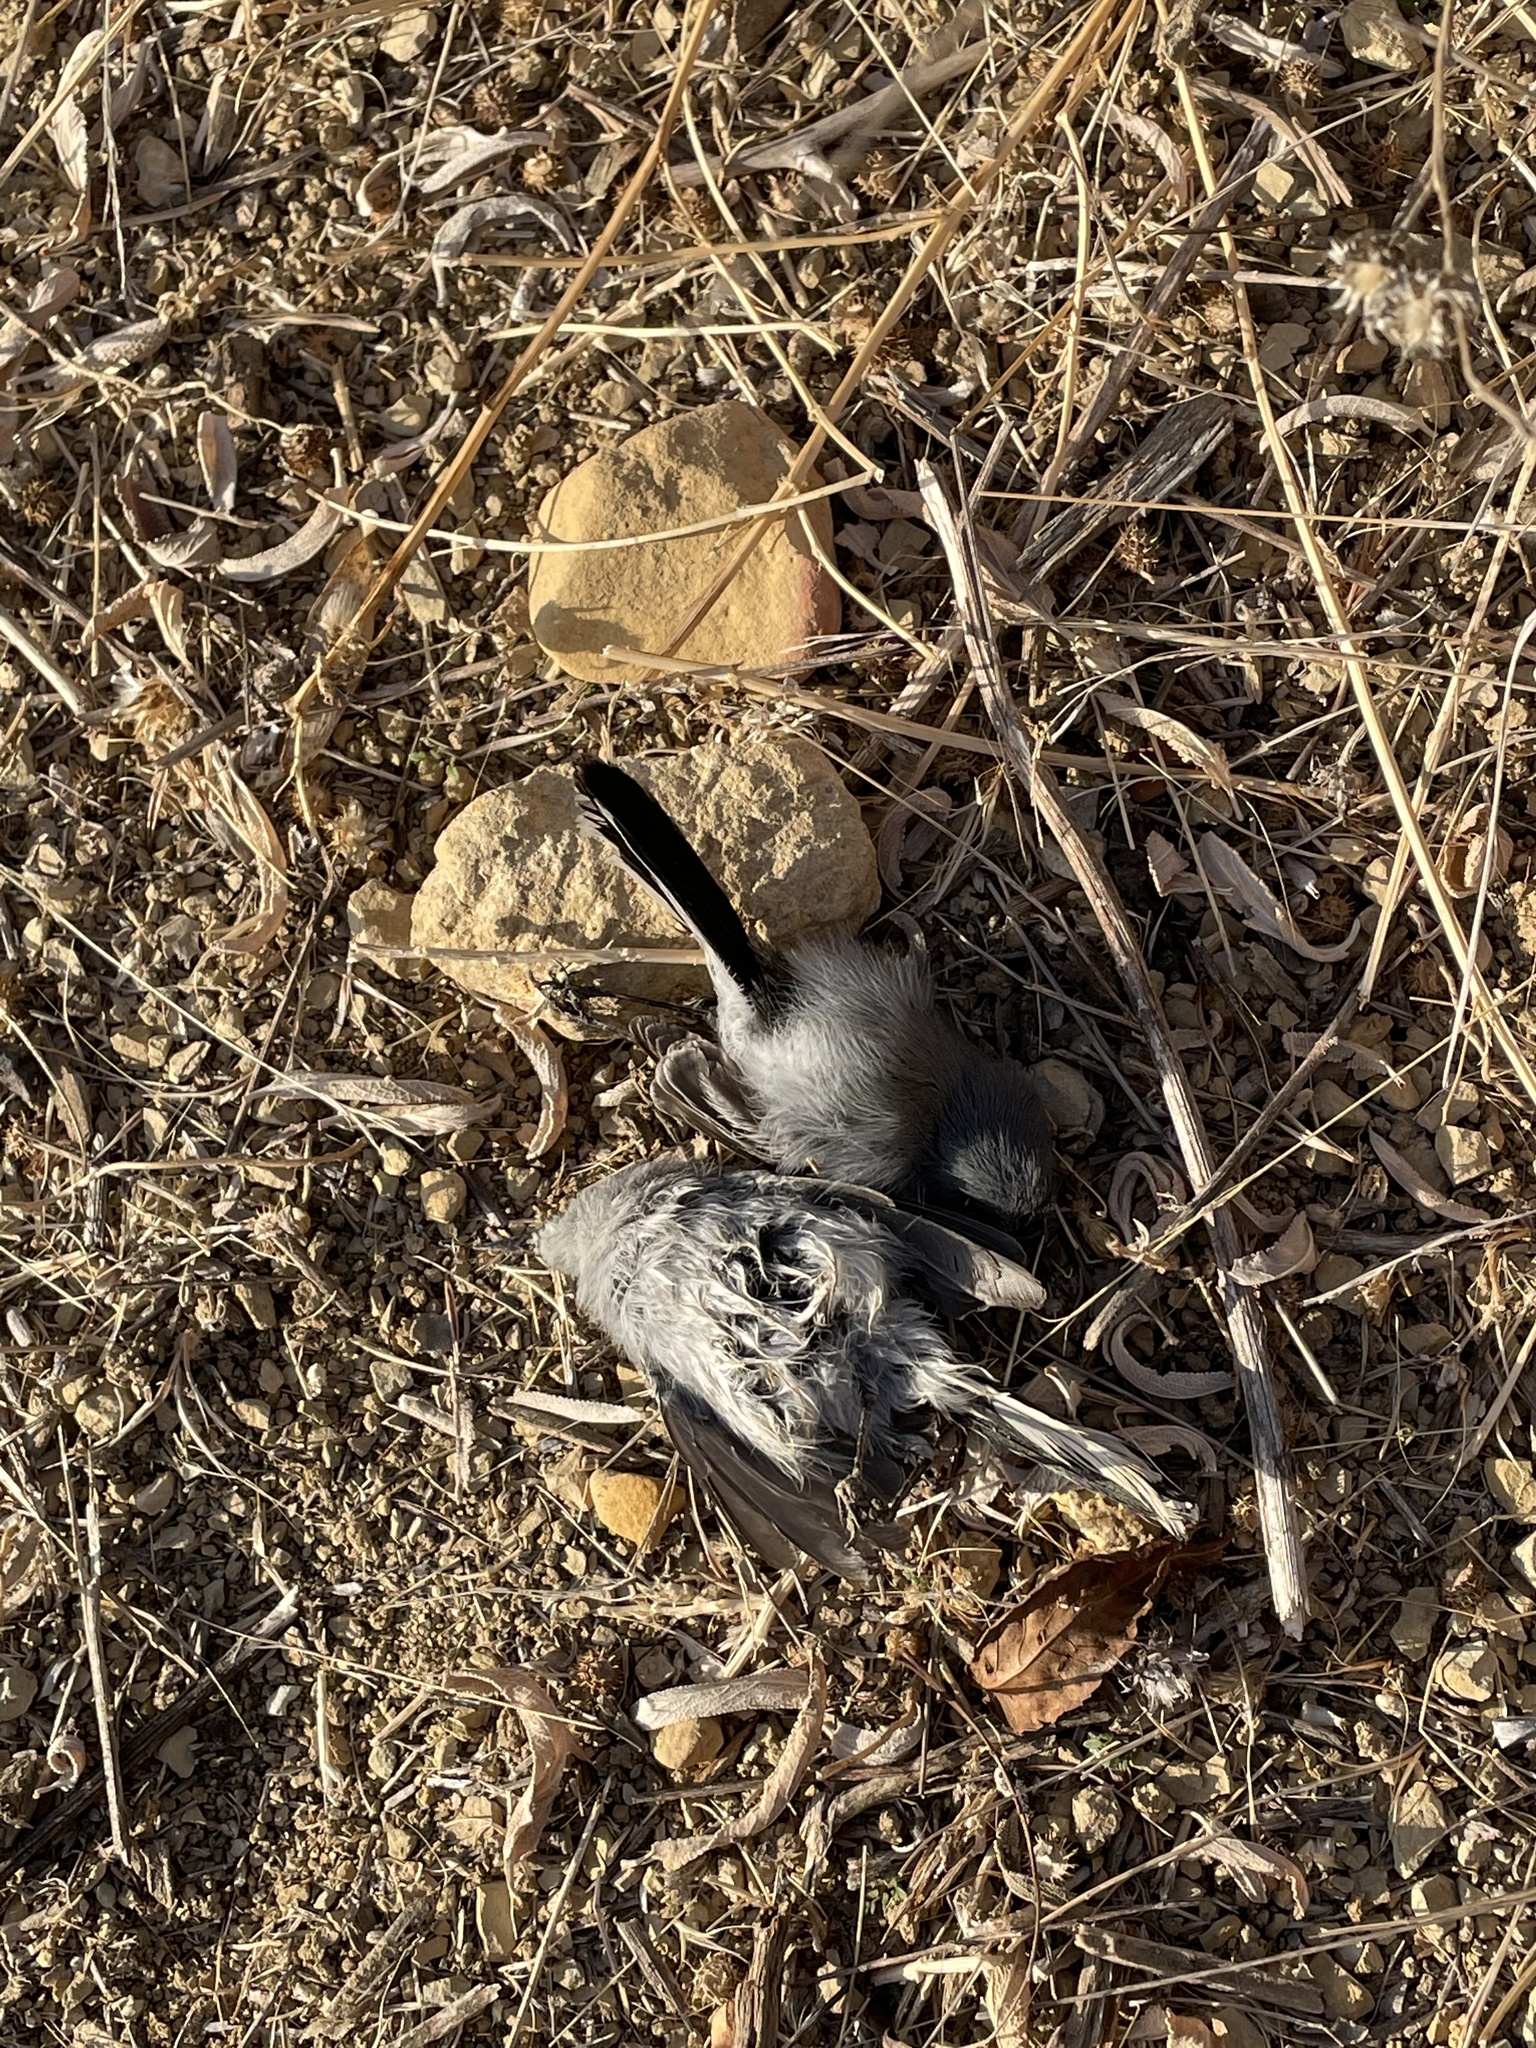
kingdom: Animalia
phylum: Chordata
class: Aves
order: Passeriformes
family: Polioptilidae
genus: Polioptila
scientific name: Polioptila caerulea
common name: Blue-gray gnatcatcher
